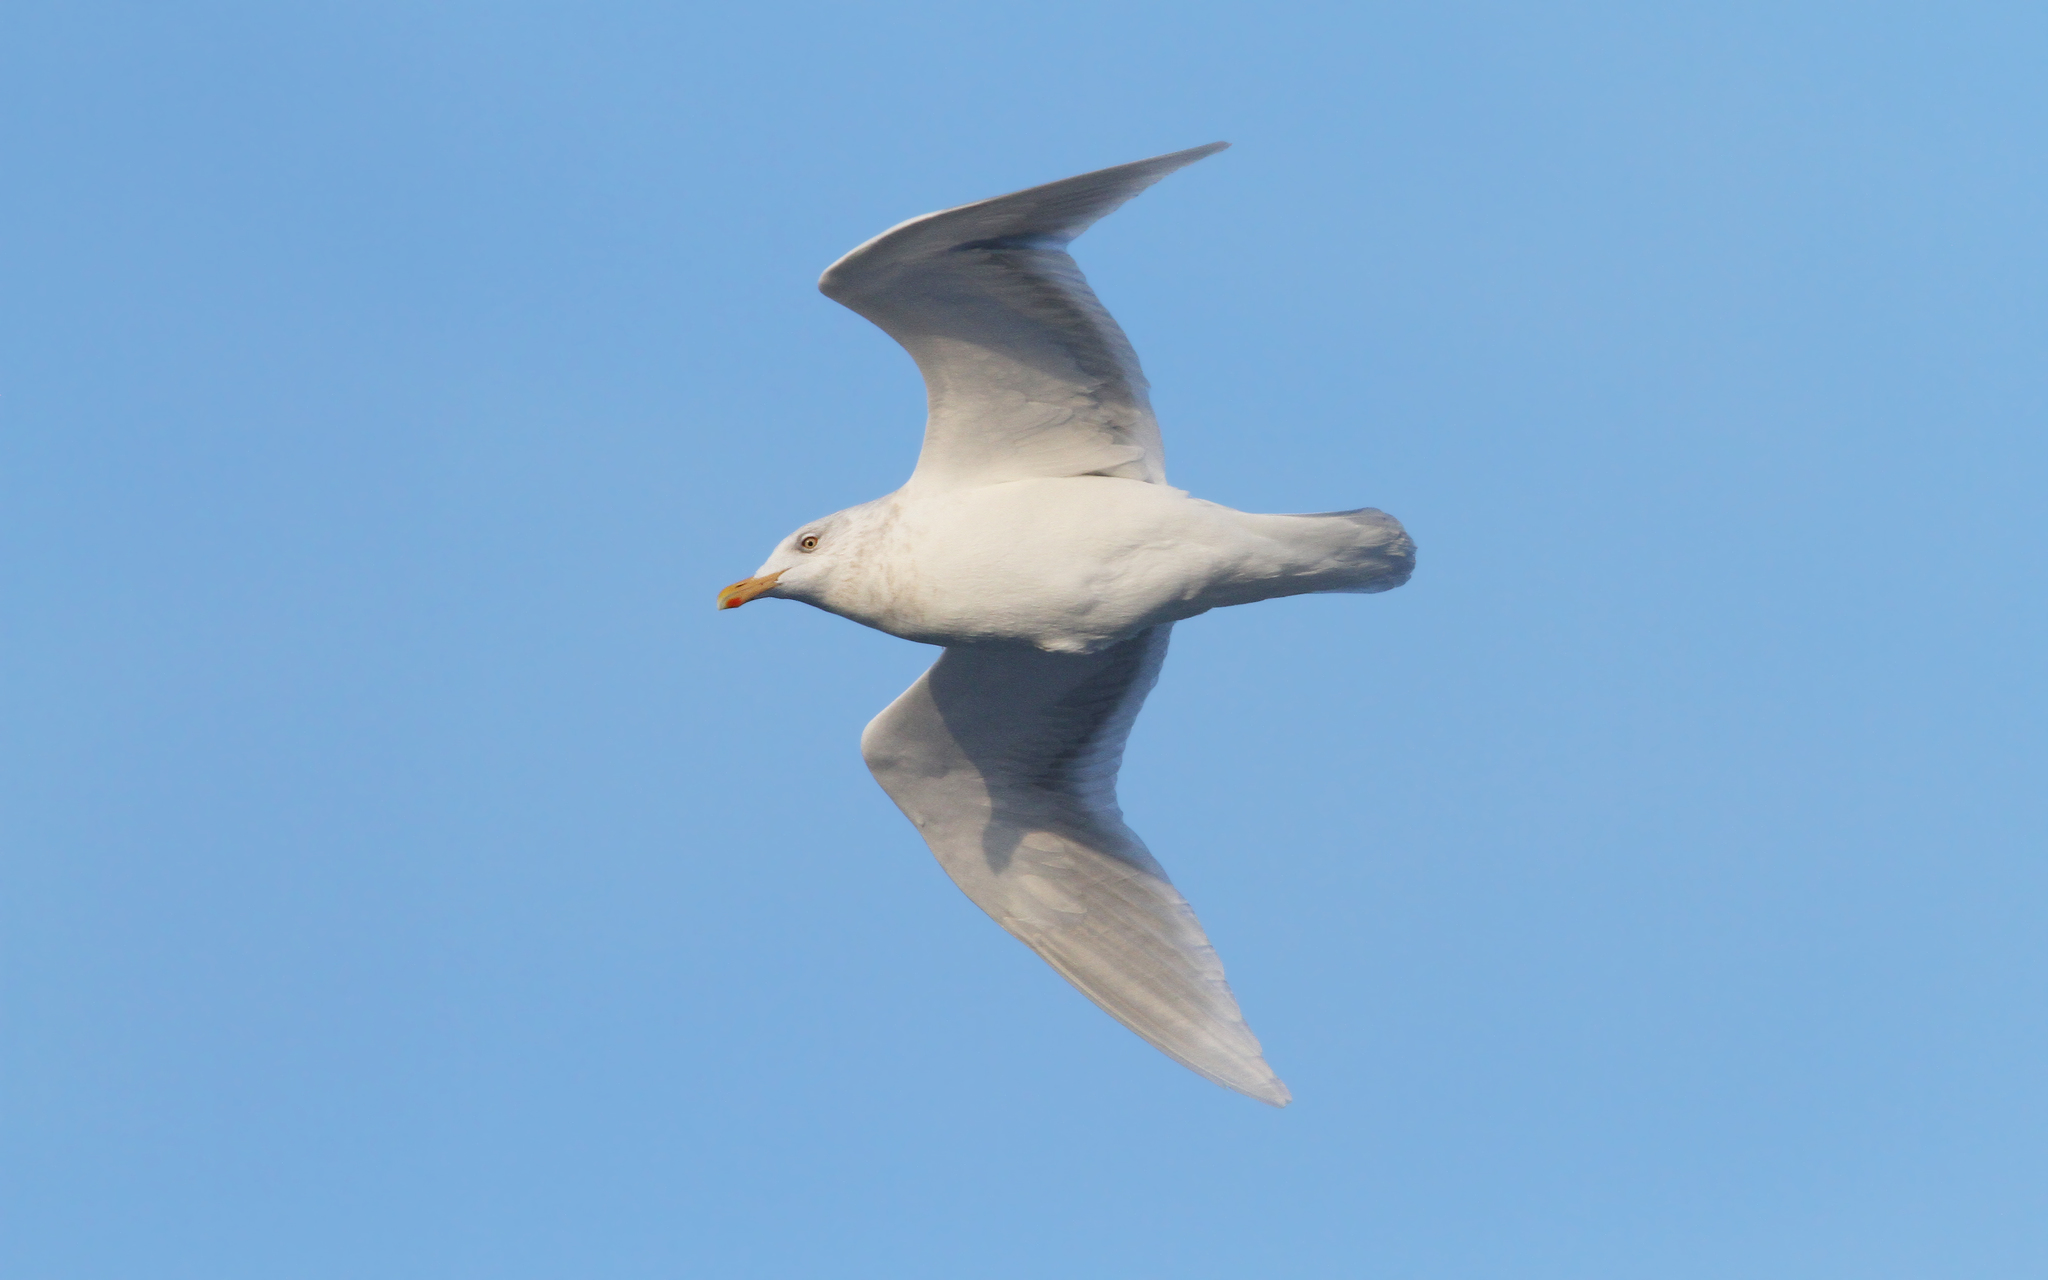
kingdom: Animalia
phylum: Chordata
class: Aves
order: Charadriiformes
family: Laridae
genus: Larus
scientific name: Larus hyperboreus
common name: Glaucous gull
